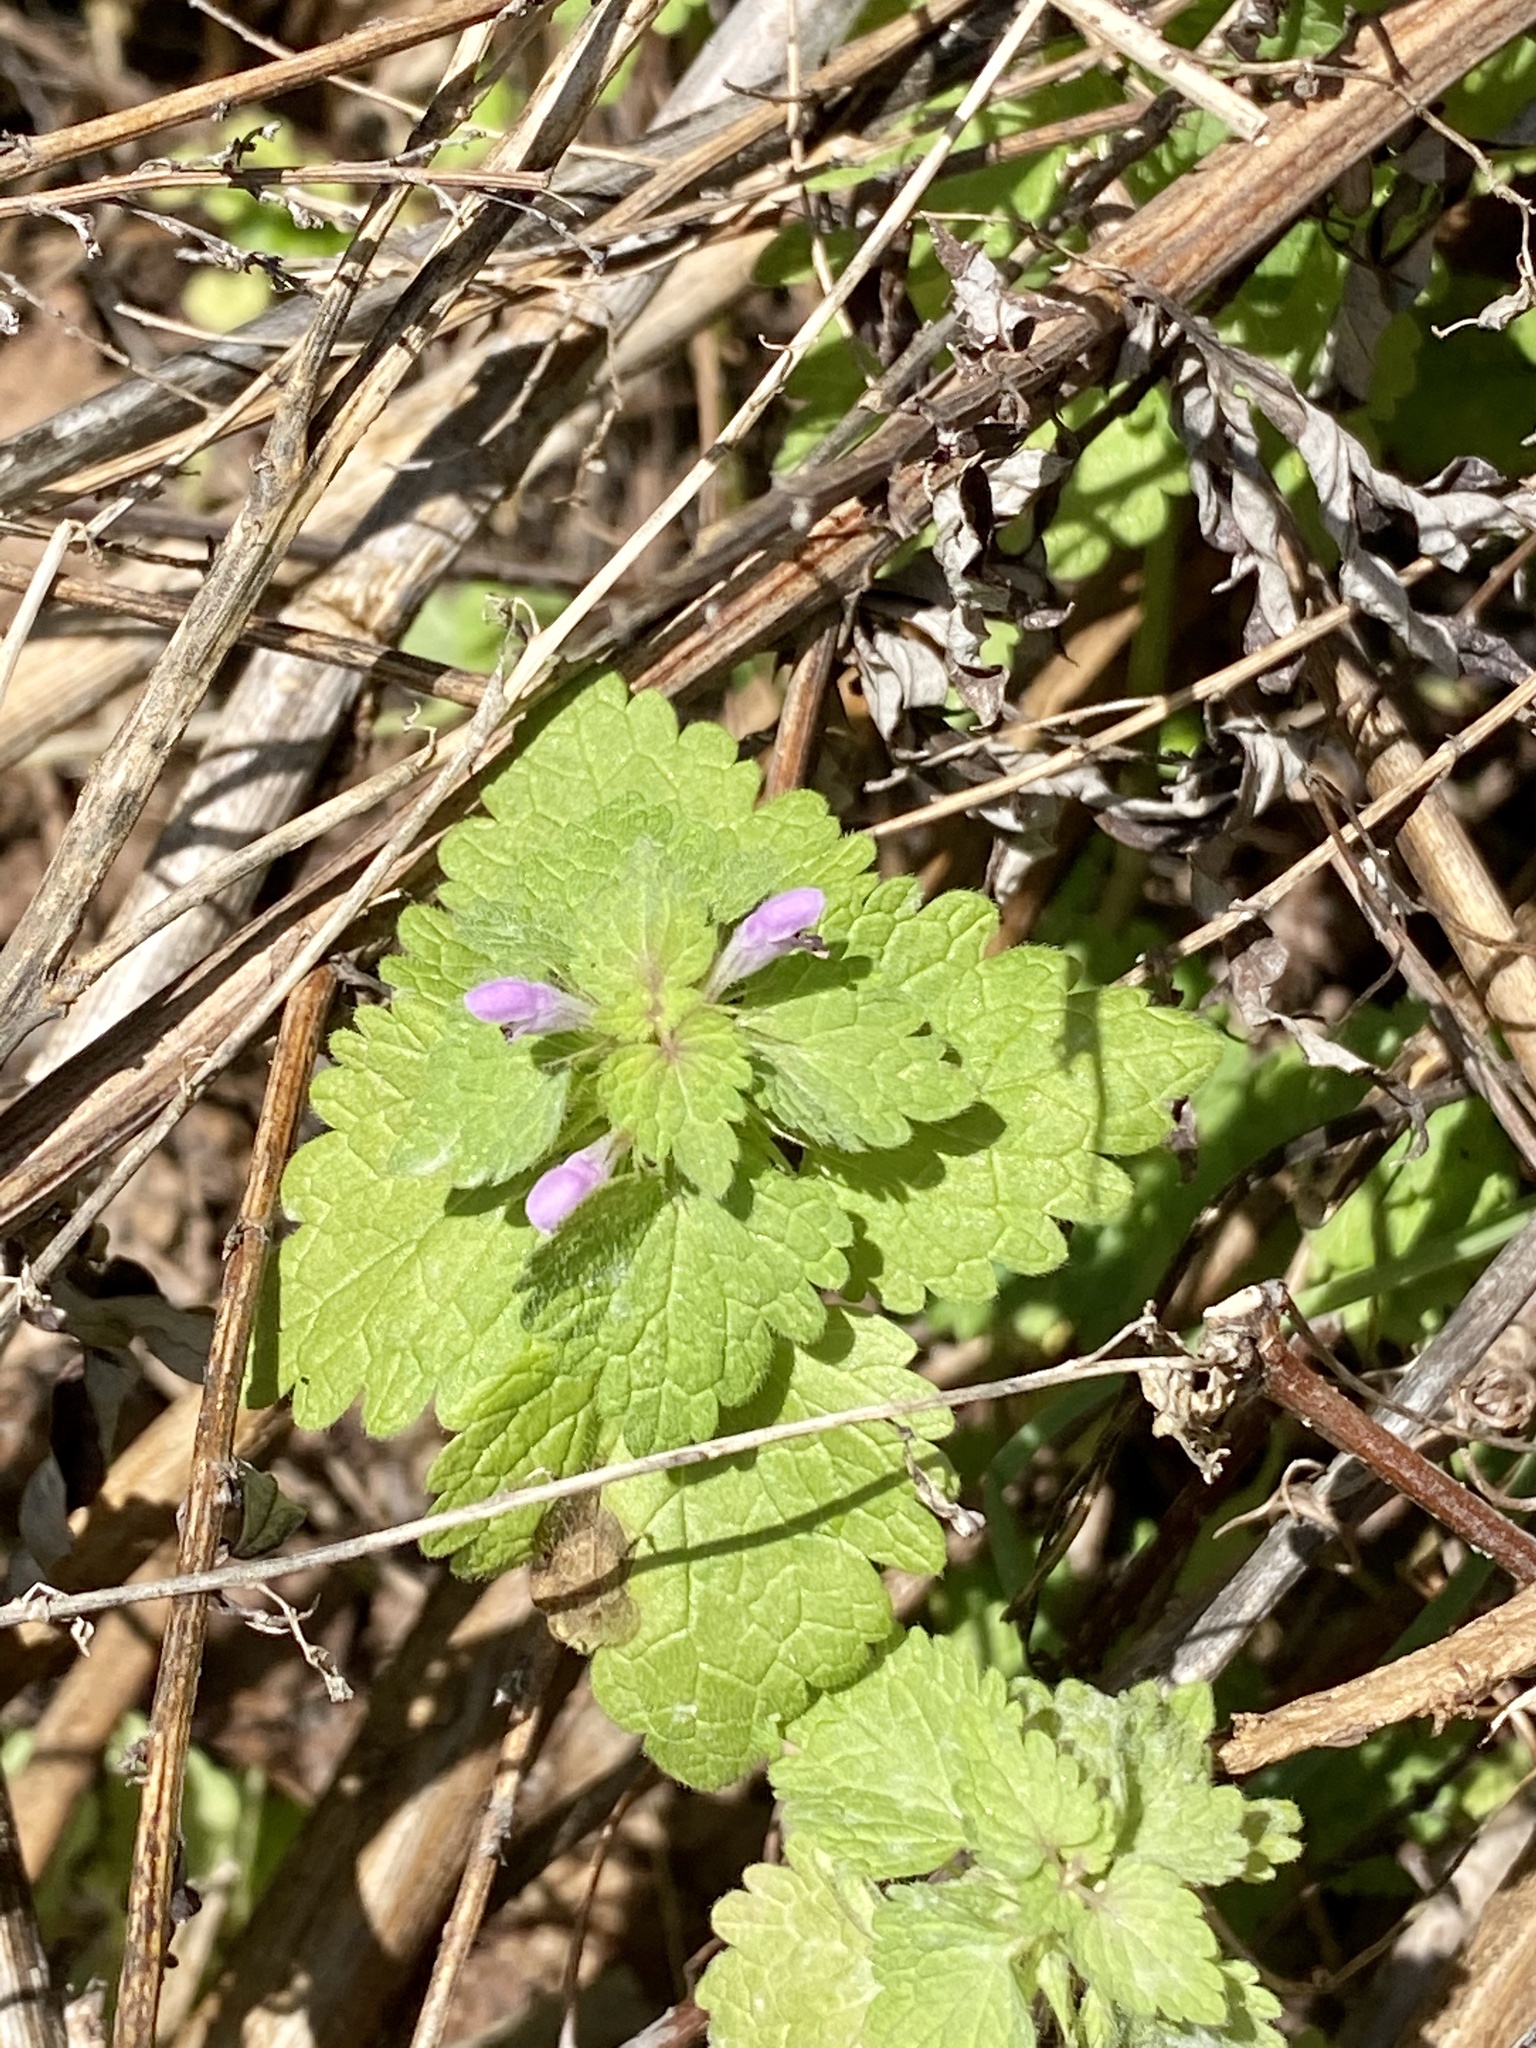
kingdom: Plantae
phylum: Tracheophyta
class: Magnoliopsida
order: Lamiales
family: Lamiaceae
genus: Lamium
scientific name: Lamium purpureum
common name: Red dead-nettle
